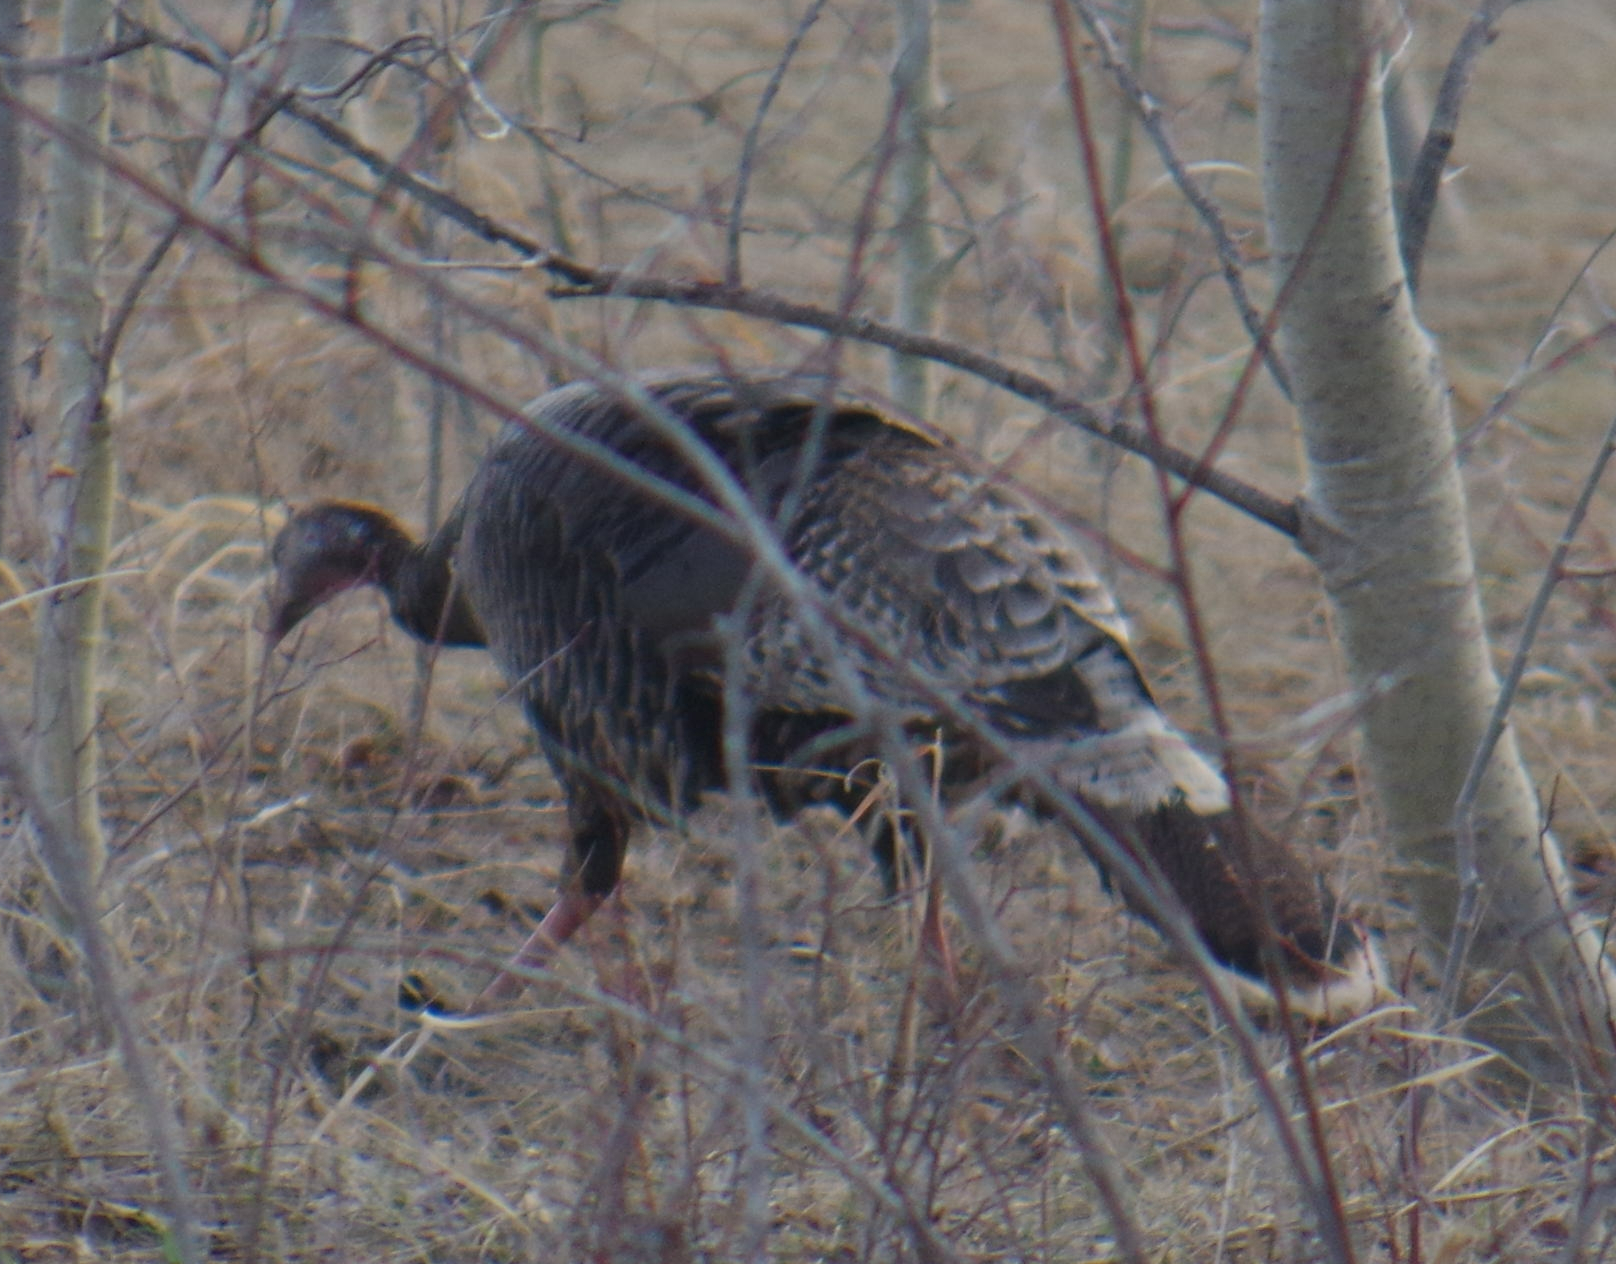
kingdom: Animalia
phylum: Chordata
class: Aves
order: Galliformes
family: Phasianidae
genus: Meleagris
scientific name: Meleagris gallopavo
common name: Wild turkey
